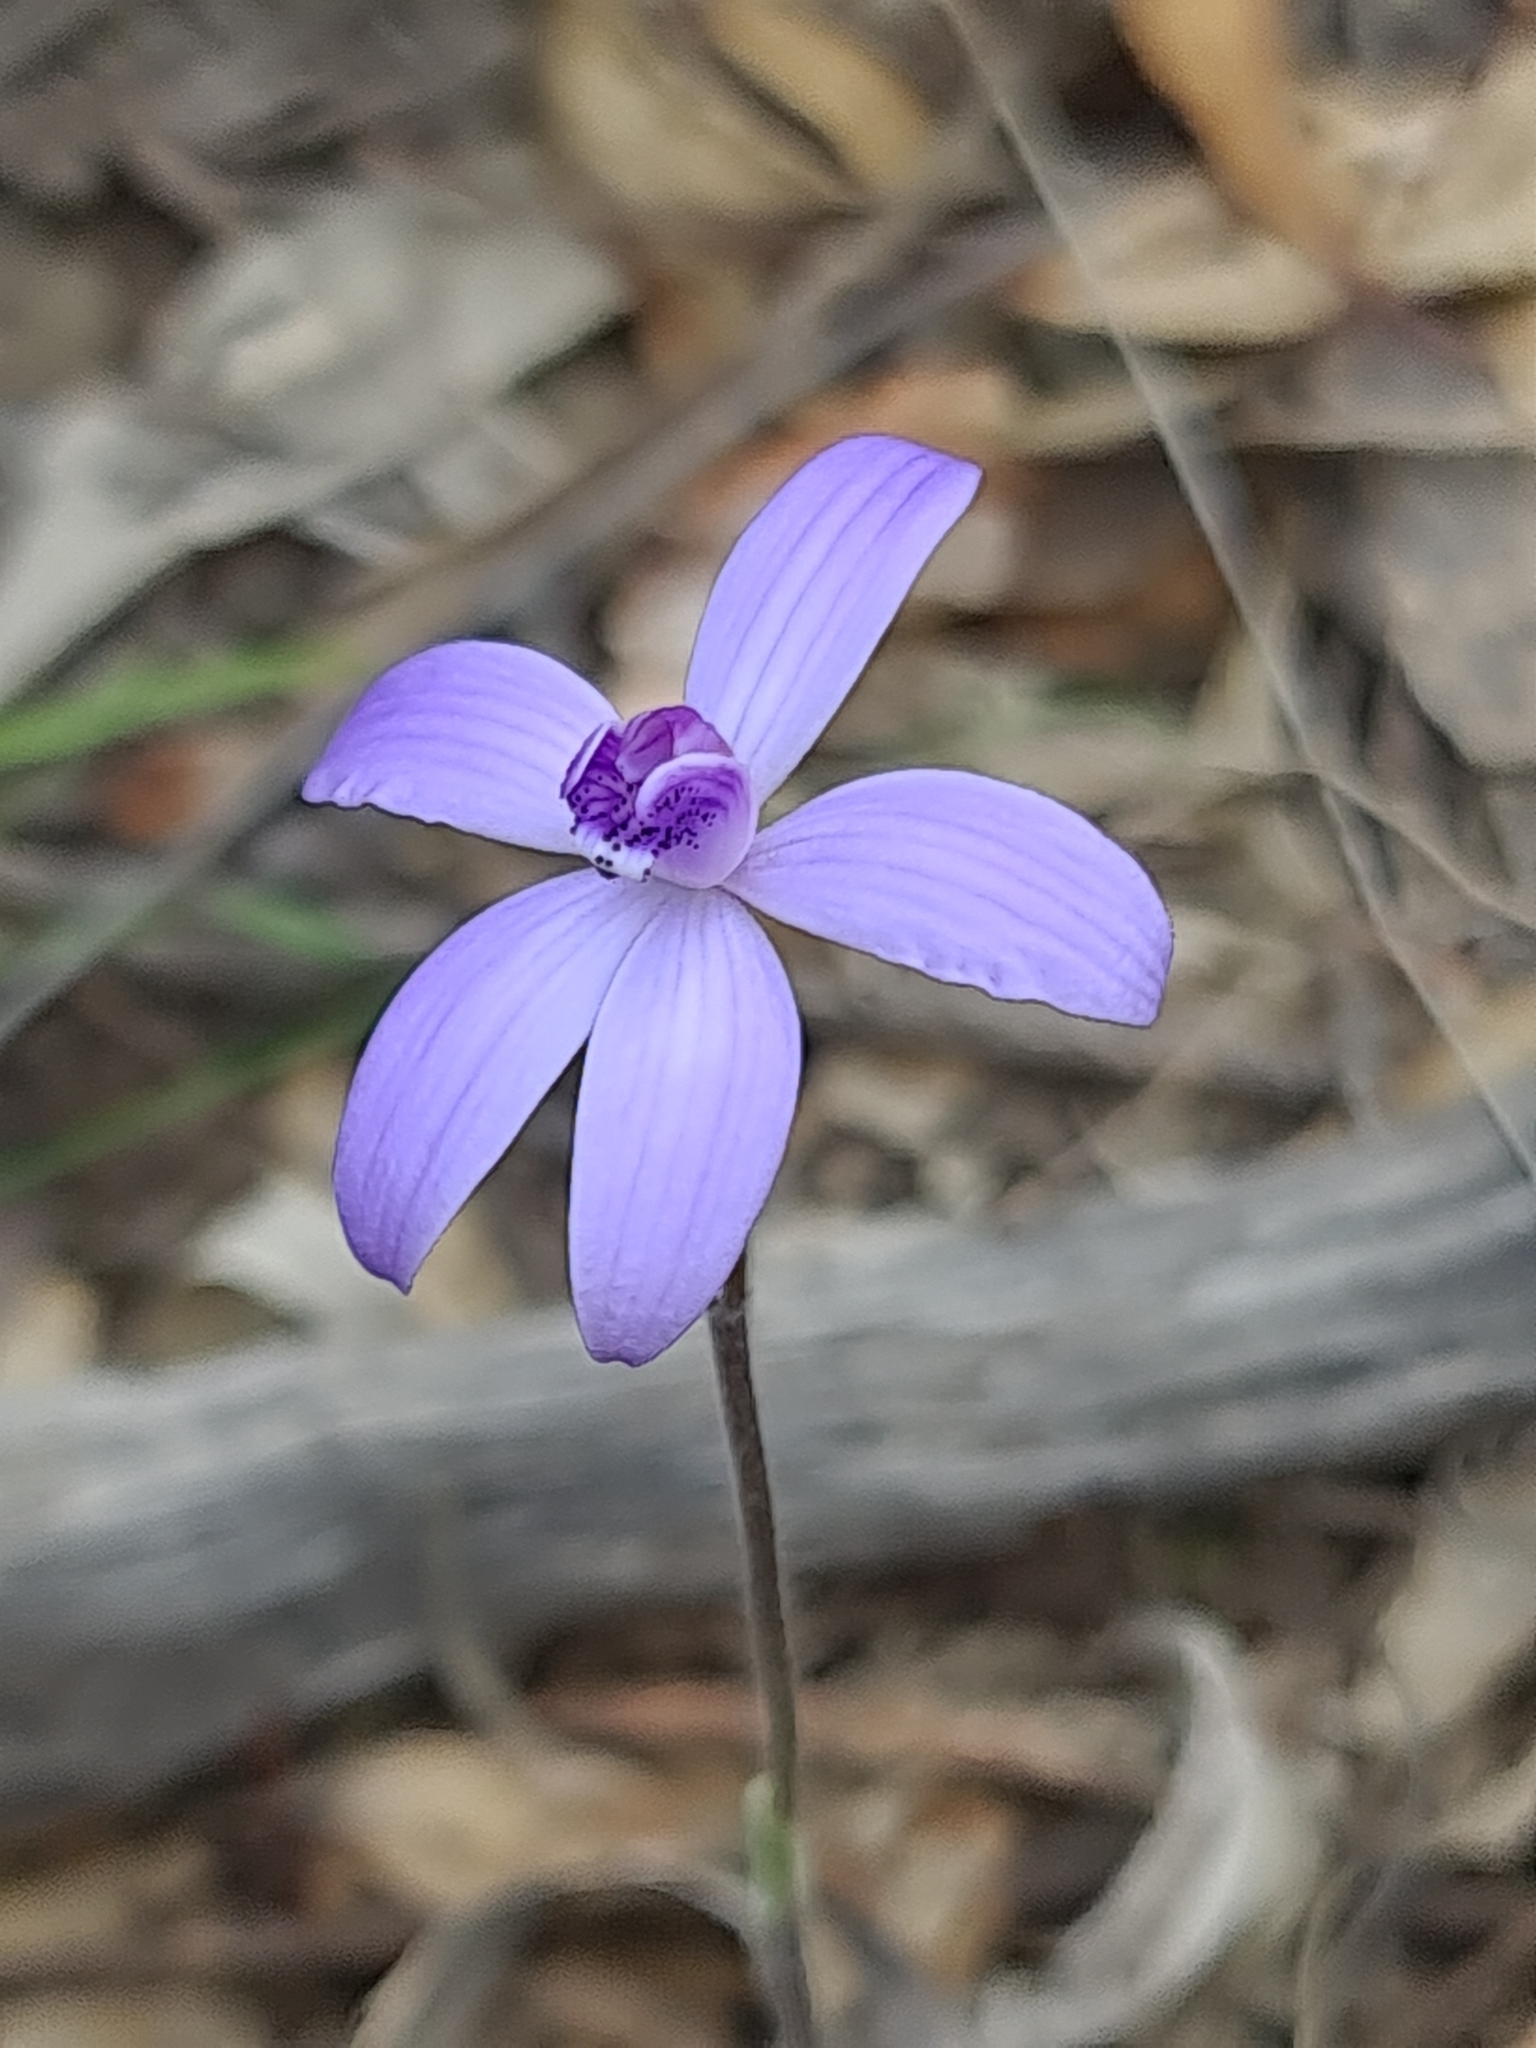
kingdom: Plantae
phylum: Tracheophyta
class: Liliopsida
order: Asparagales
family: Orchidaceae
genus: Caladenia
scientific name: Caladenia sericea
